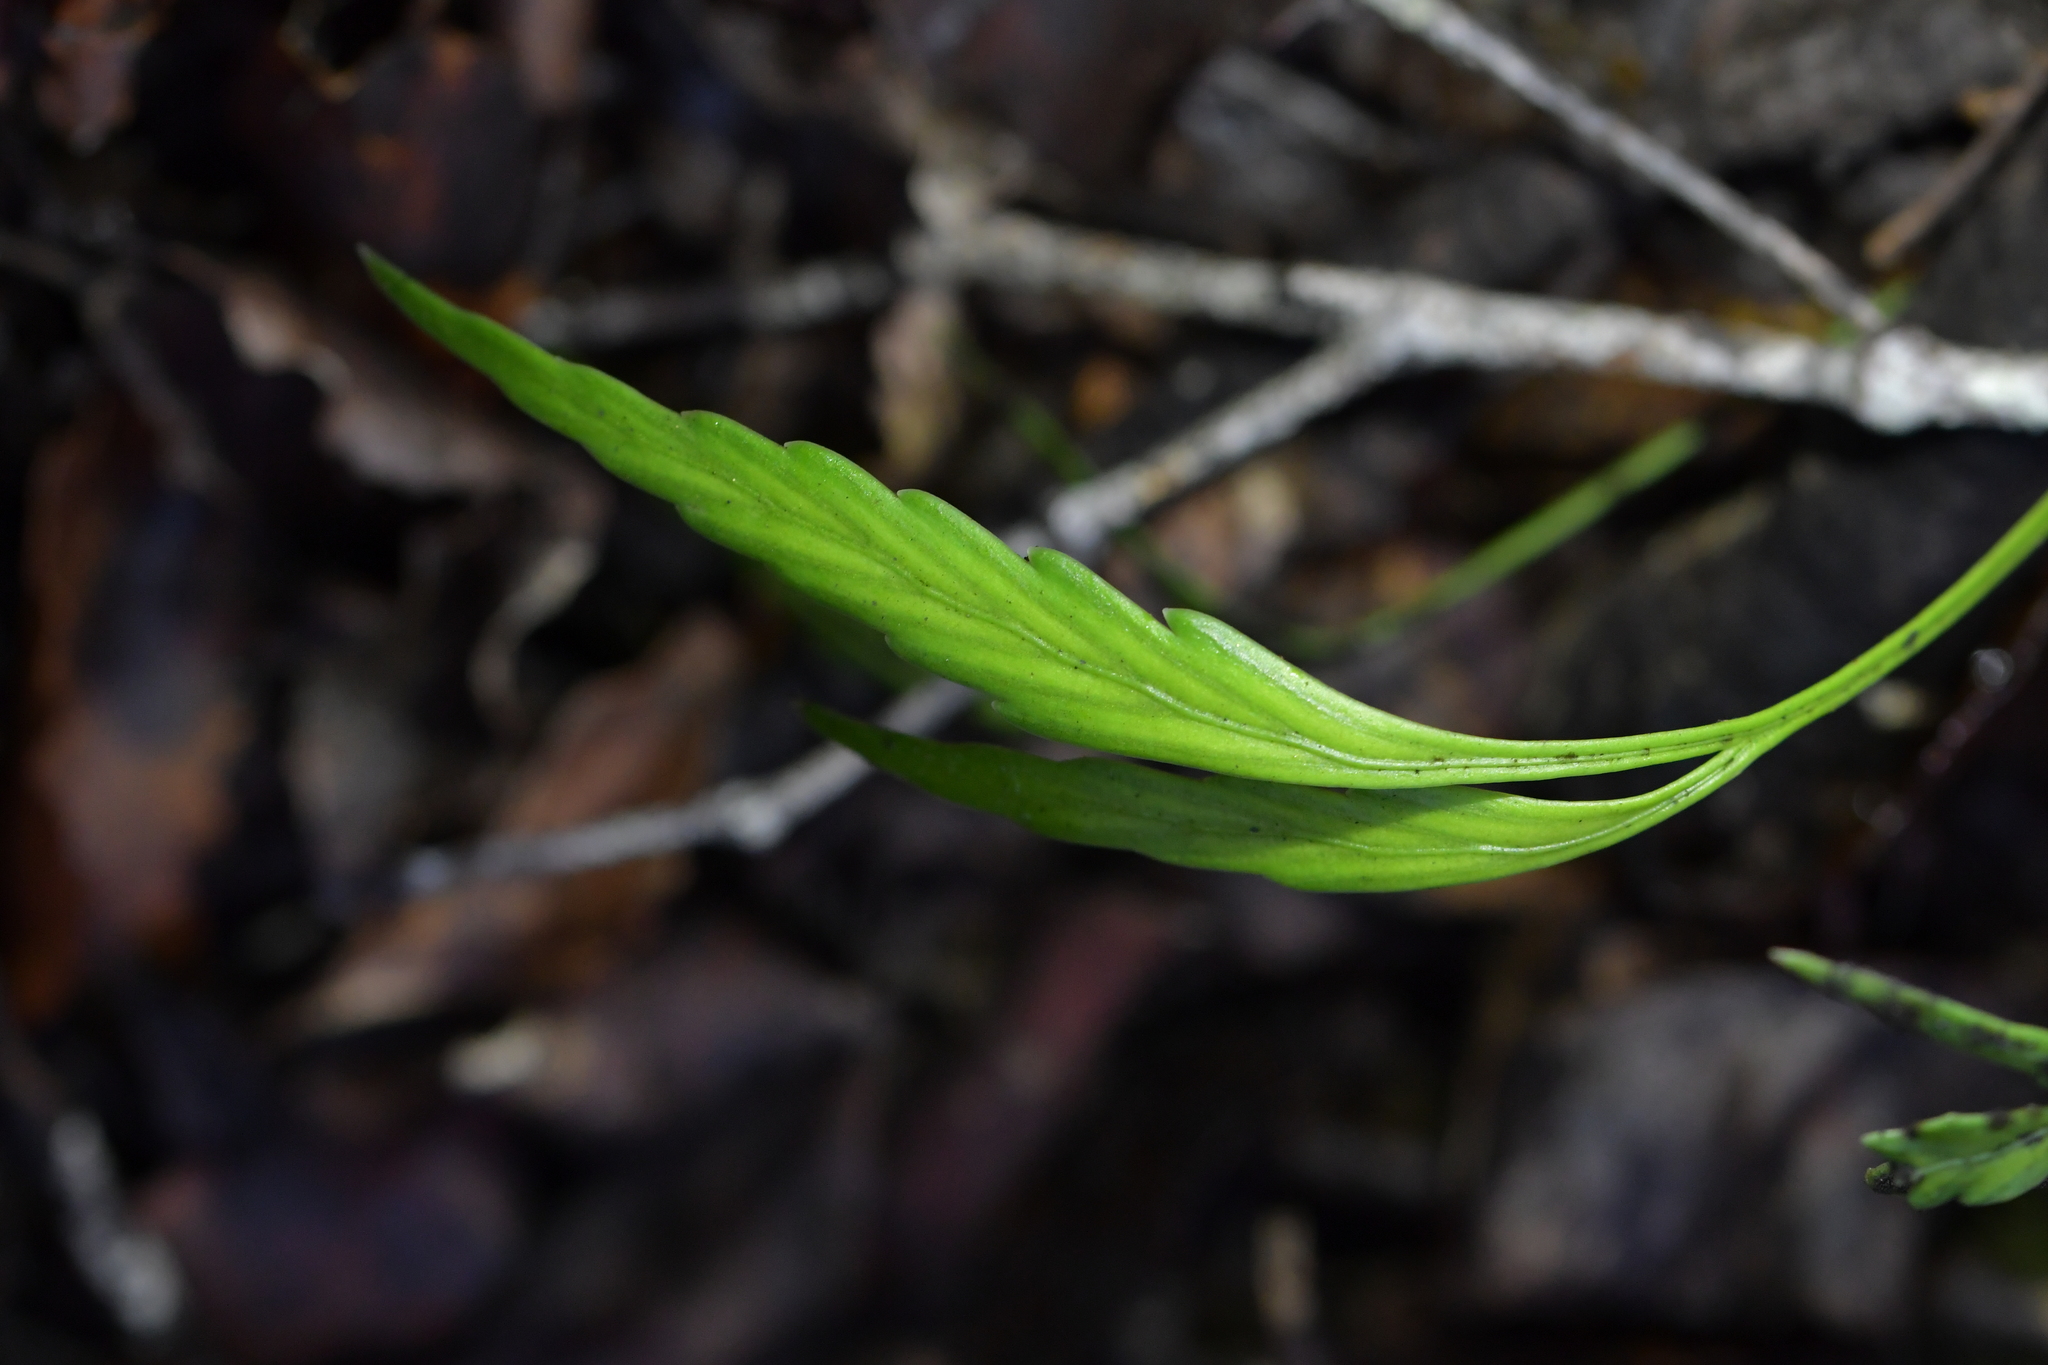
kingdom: Plantae
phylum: Tracheophyta
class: Polypodiopsida
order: Polypodiales
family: Aspleniaceae
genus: Asplenium
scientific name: Asplenium flaccidum
